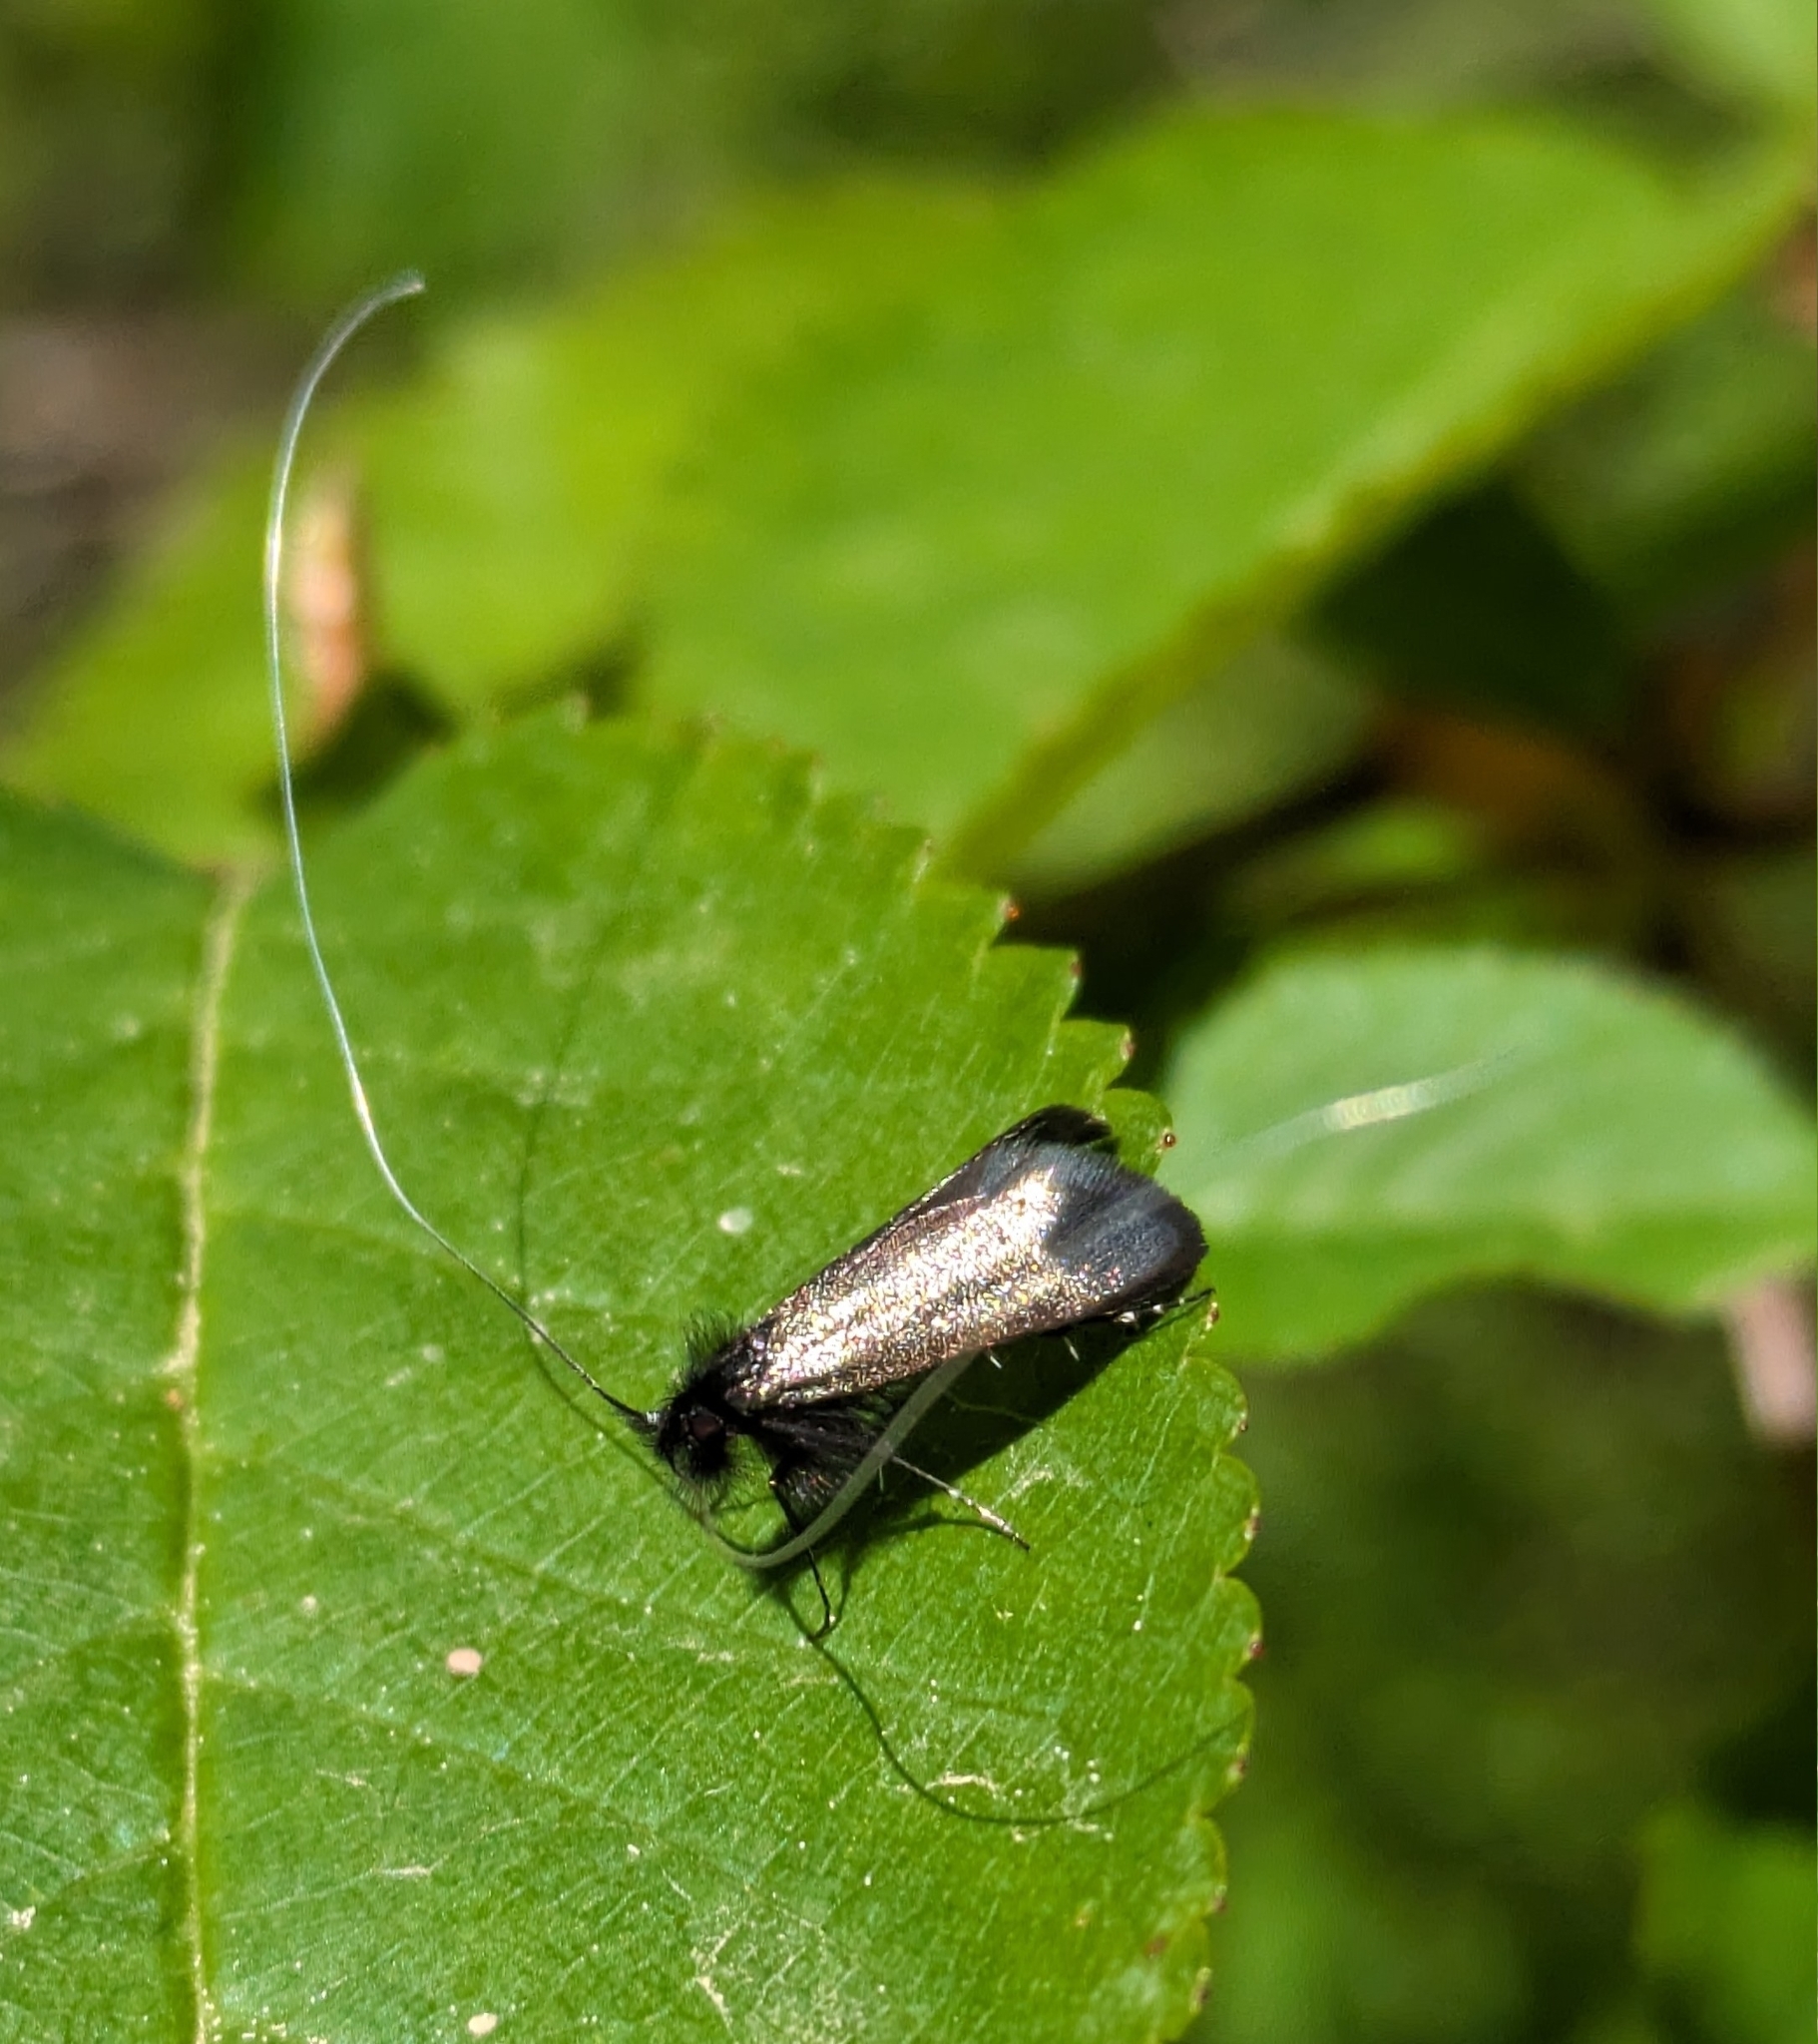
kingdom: Animalia
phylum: Arthropoda
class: Insecta
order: Lepidoptera
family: Adelidae
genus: Adela
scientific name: Adela viridella
